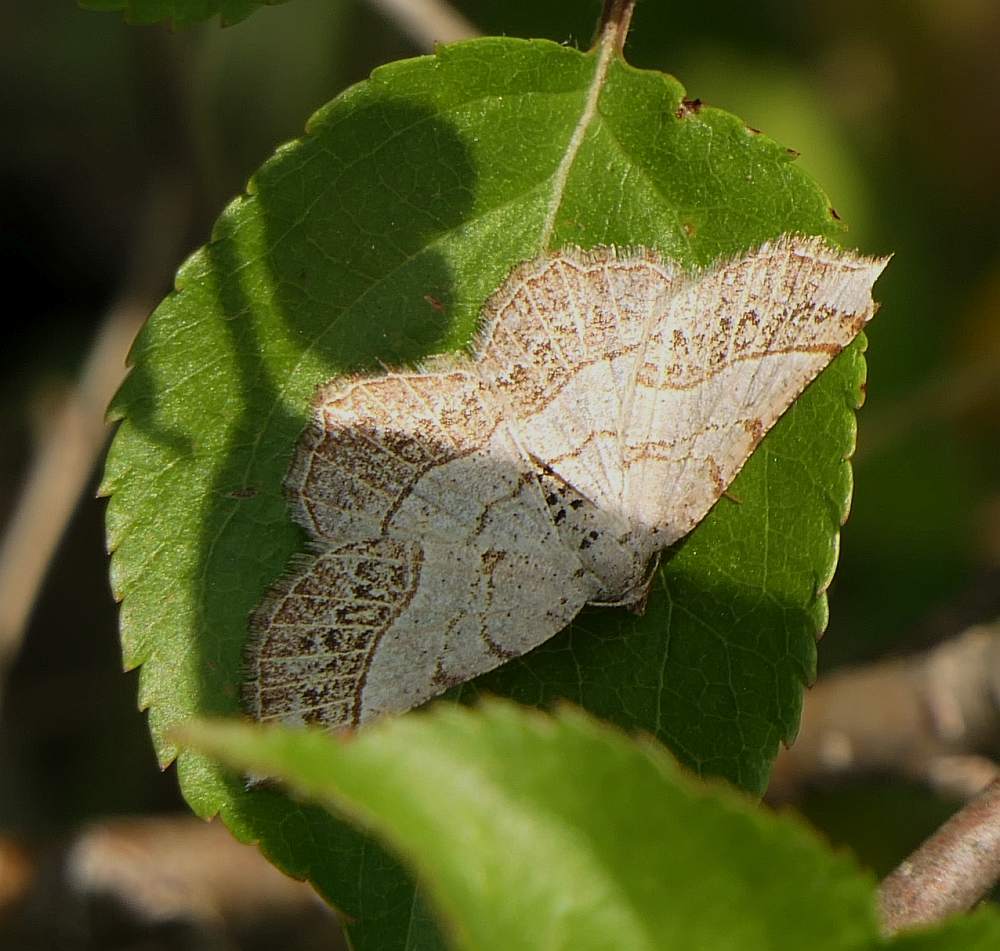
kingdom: Animalia
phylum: Arthropoda
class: Insecta
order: Lepidoptera
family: Geometridae
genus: Eumacaria
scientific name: Eumacaria madopata
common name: Brown-bordered geometer
